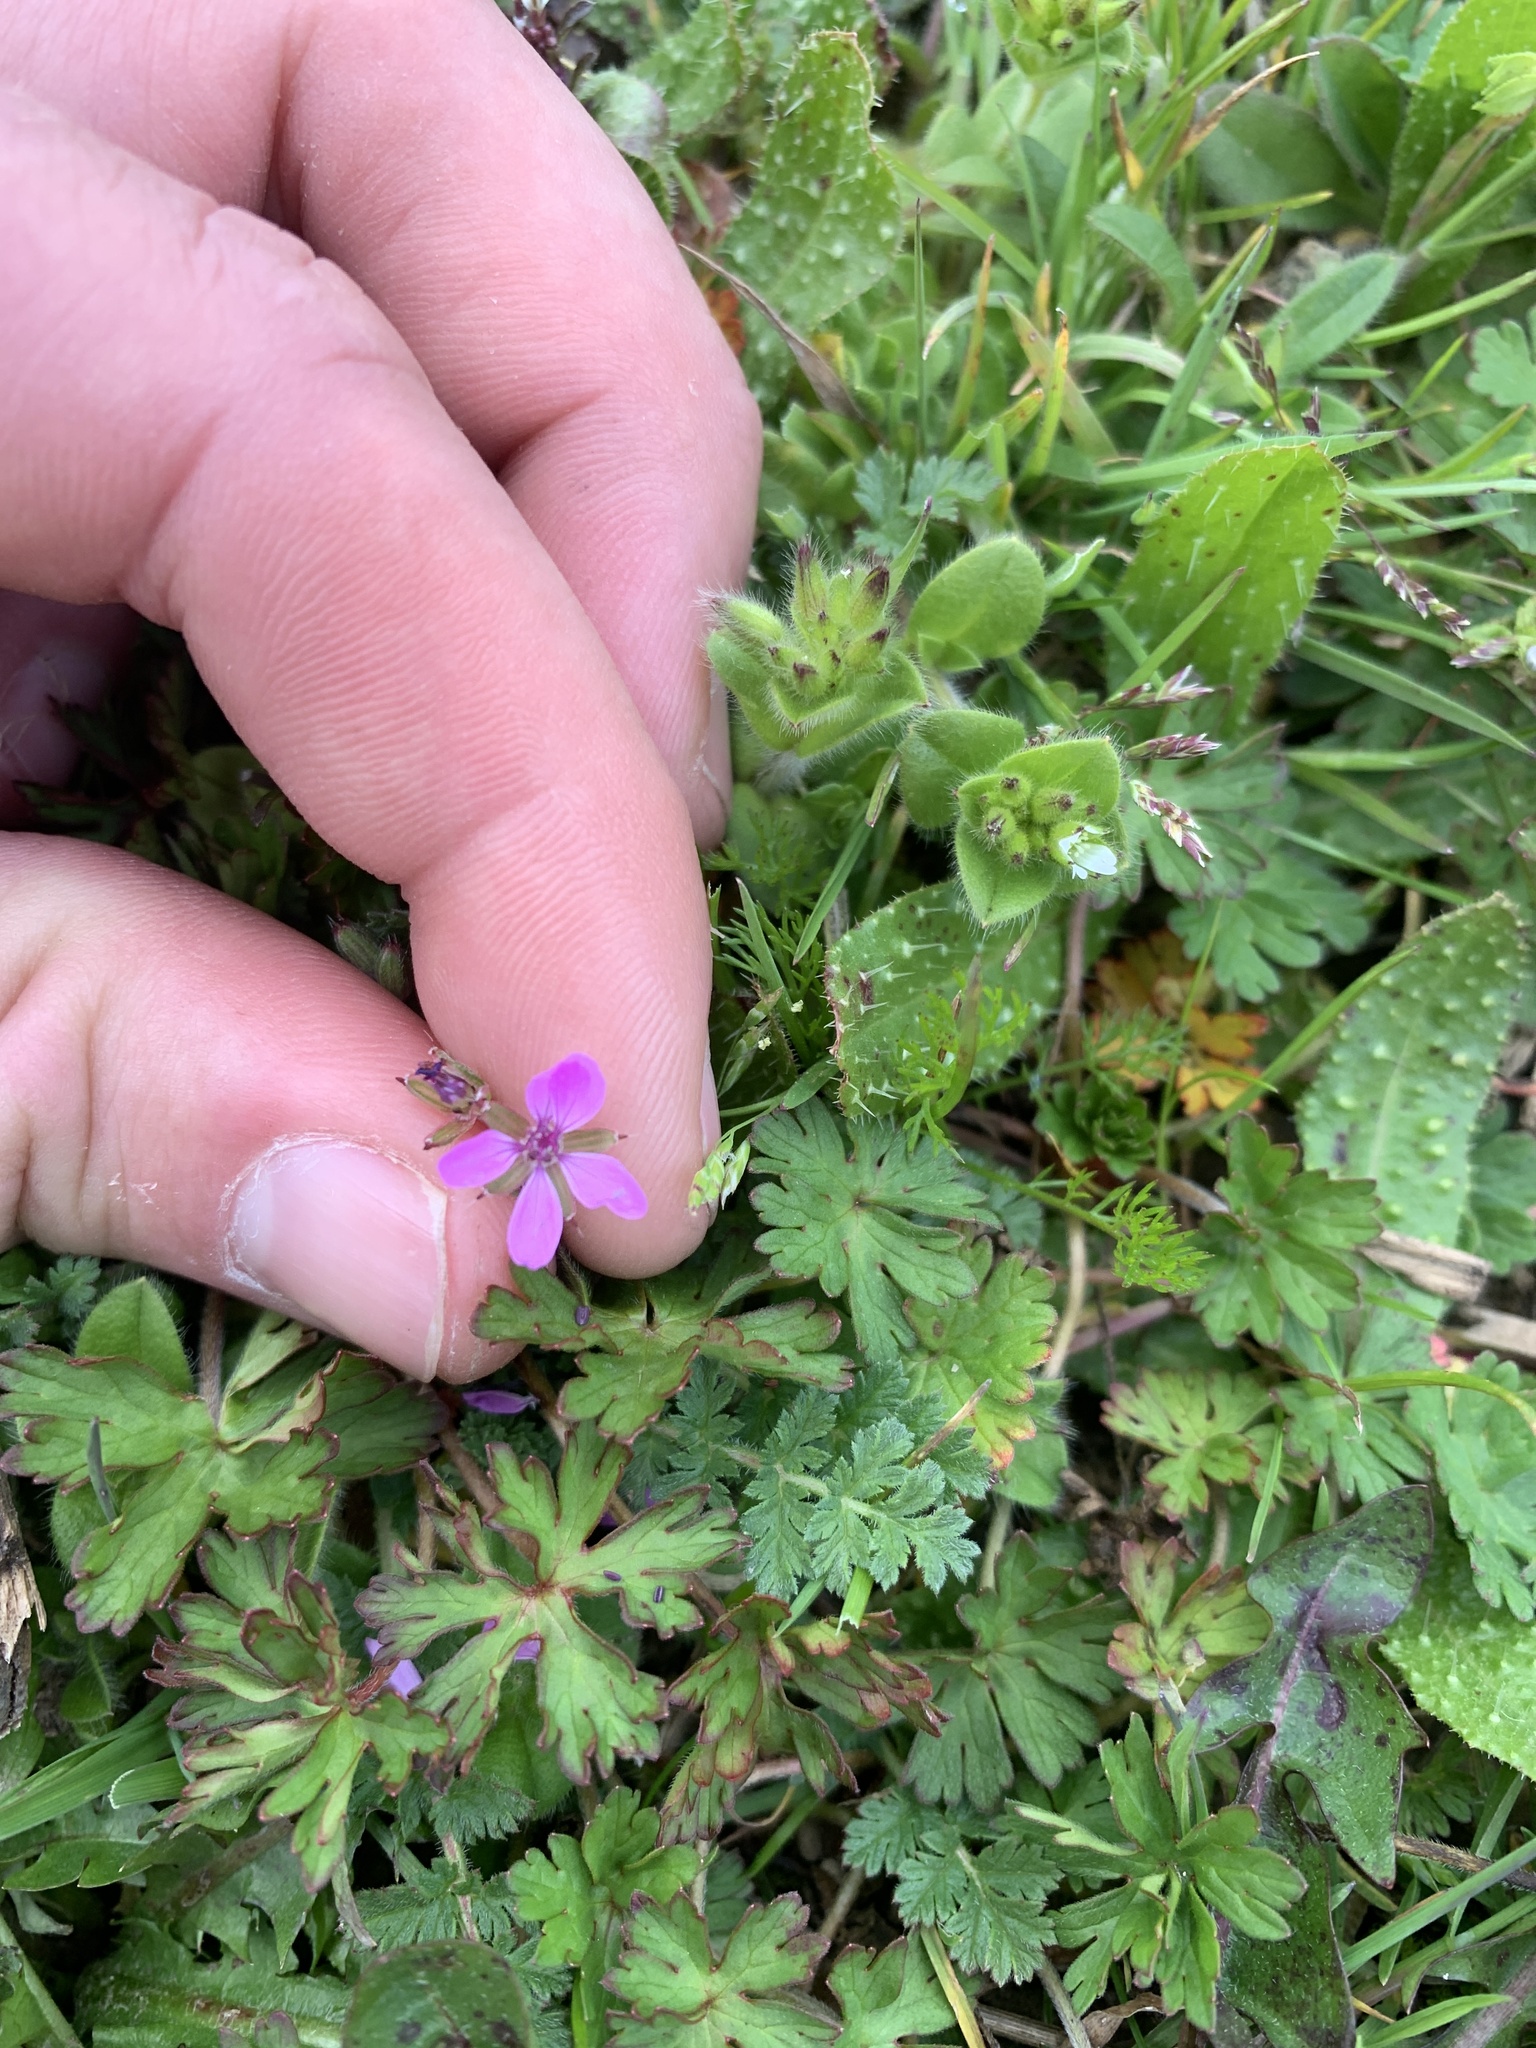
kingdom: Plantae
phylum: Tracheophyta
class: Magnoliopsida
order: Geraniales
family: Geraniaceae
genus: Erodium
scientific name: Erodium cicutarium
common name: Common stork's-bill
